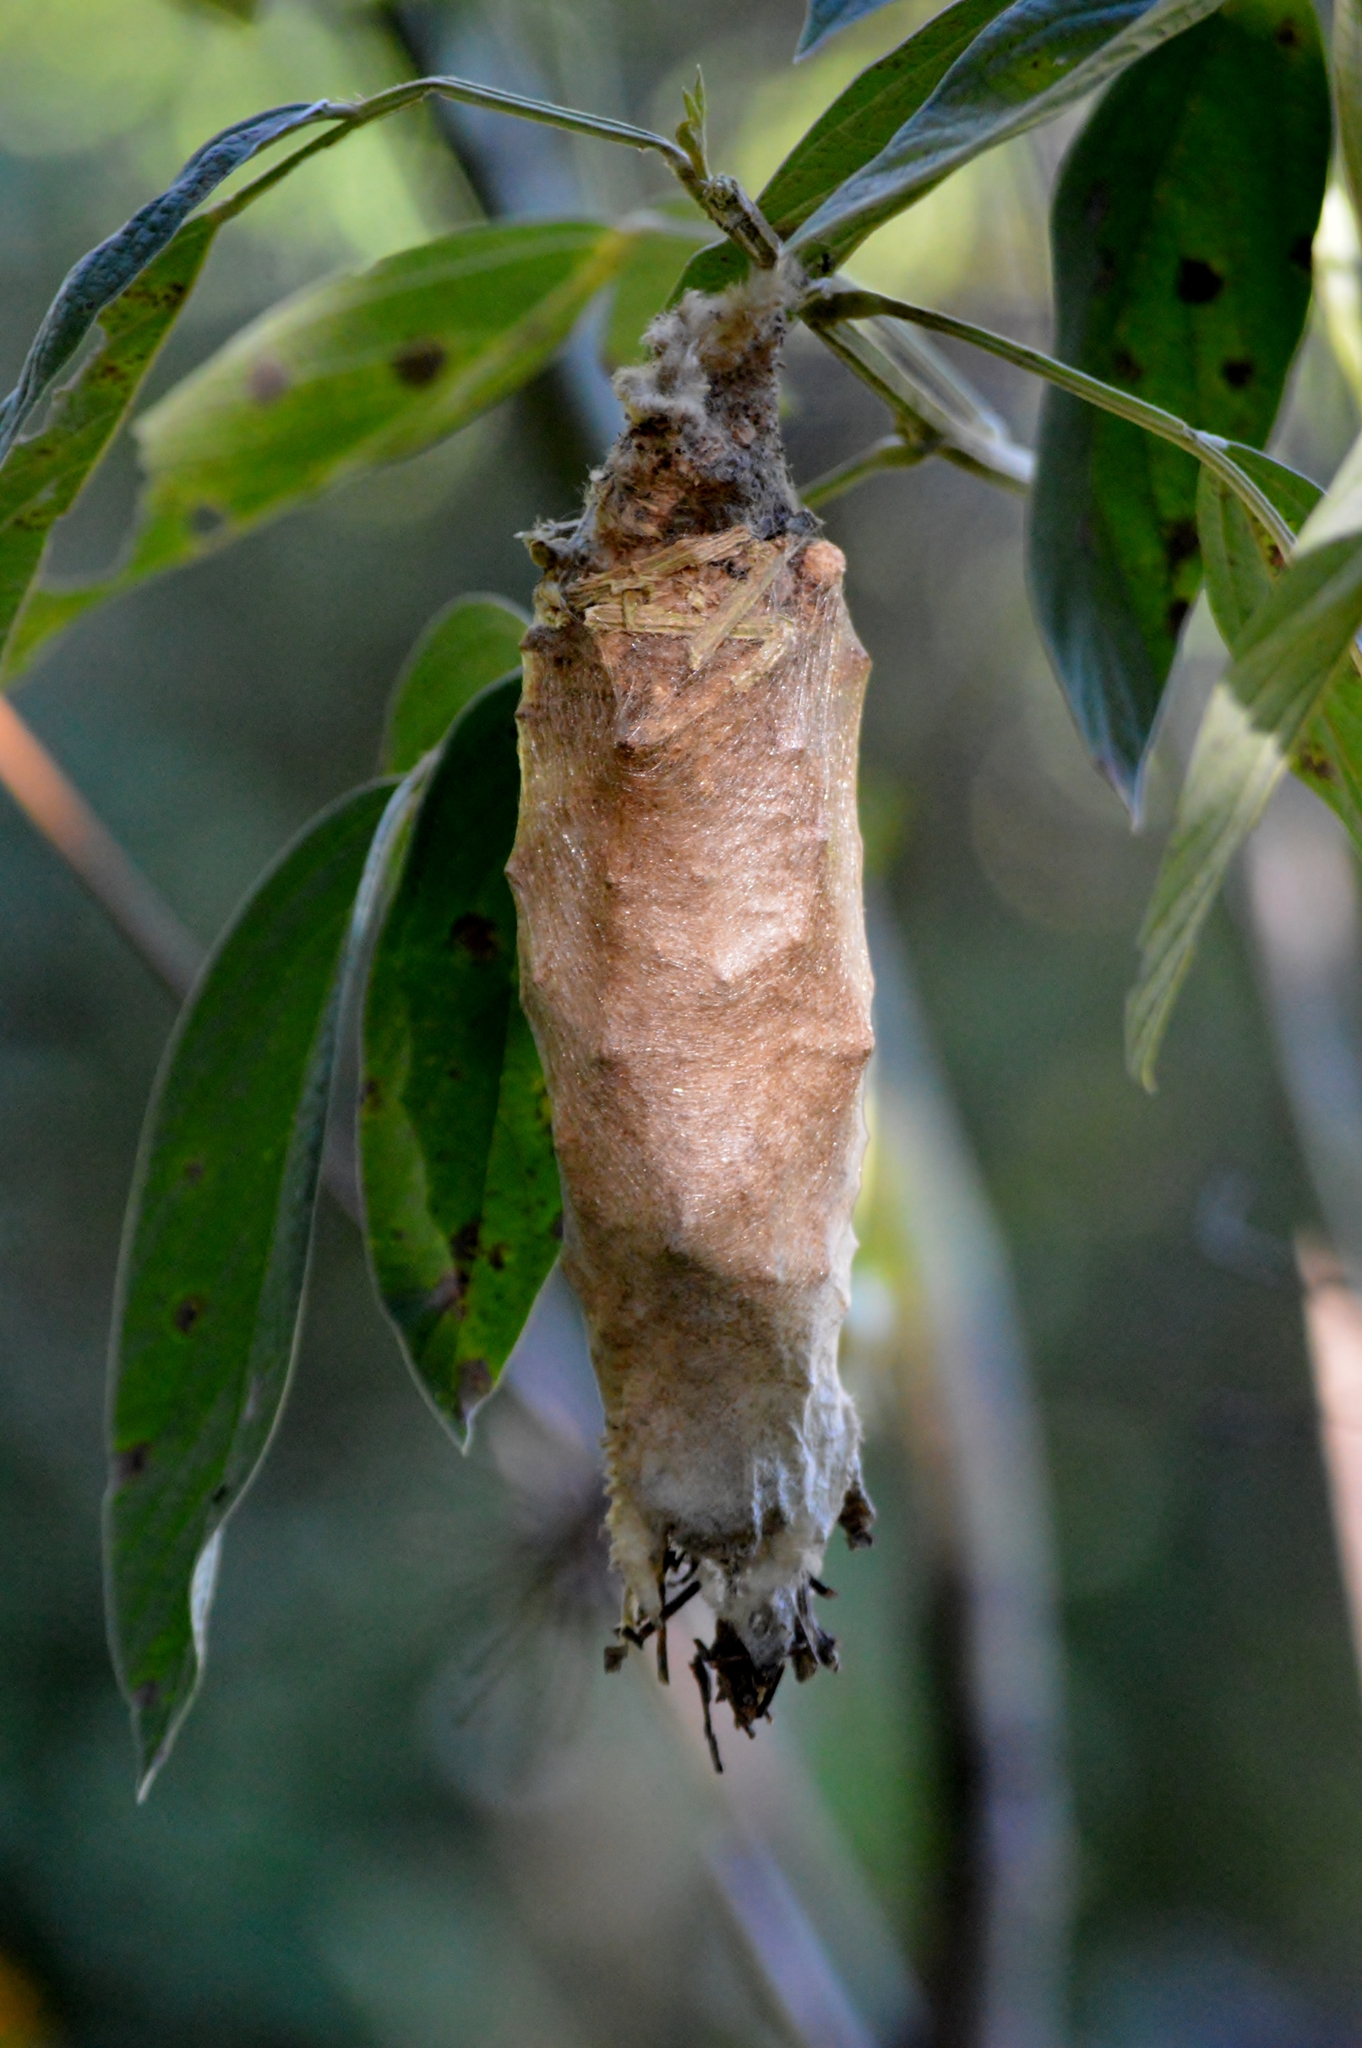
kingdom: Animalia
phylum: Arthropoda
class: Insecta
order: Lepidoptera
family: Psychidae
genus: Oiketicus
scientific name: Oiketicus kirbyi
